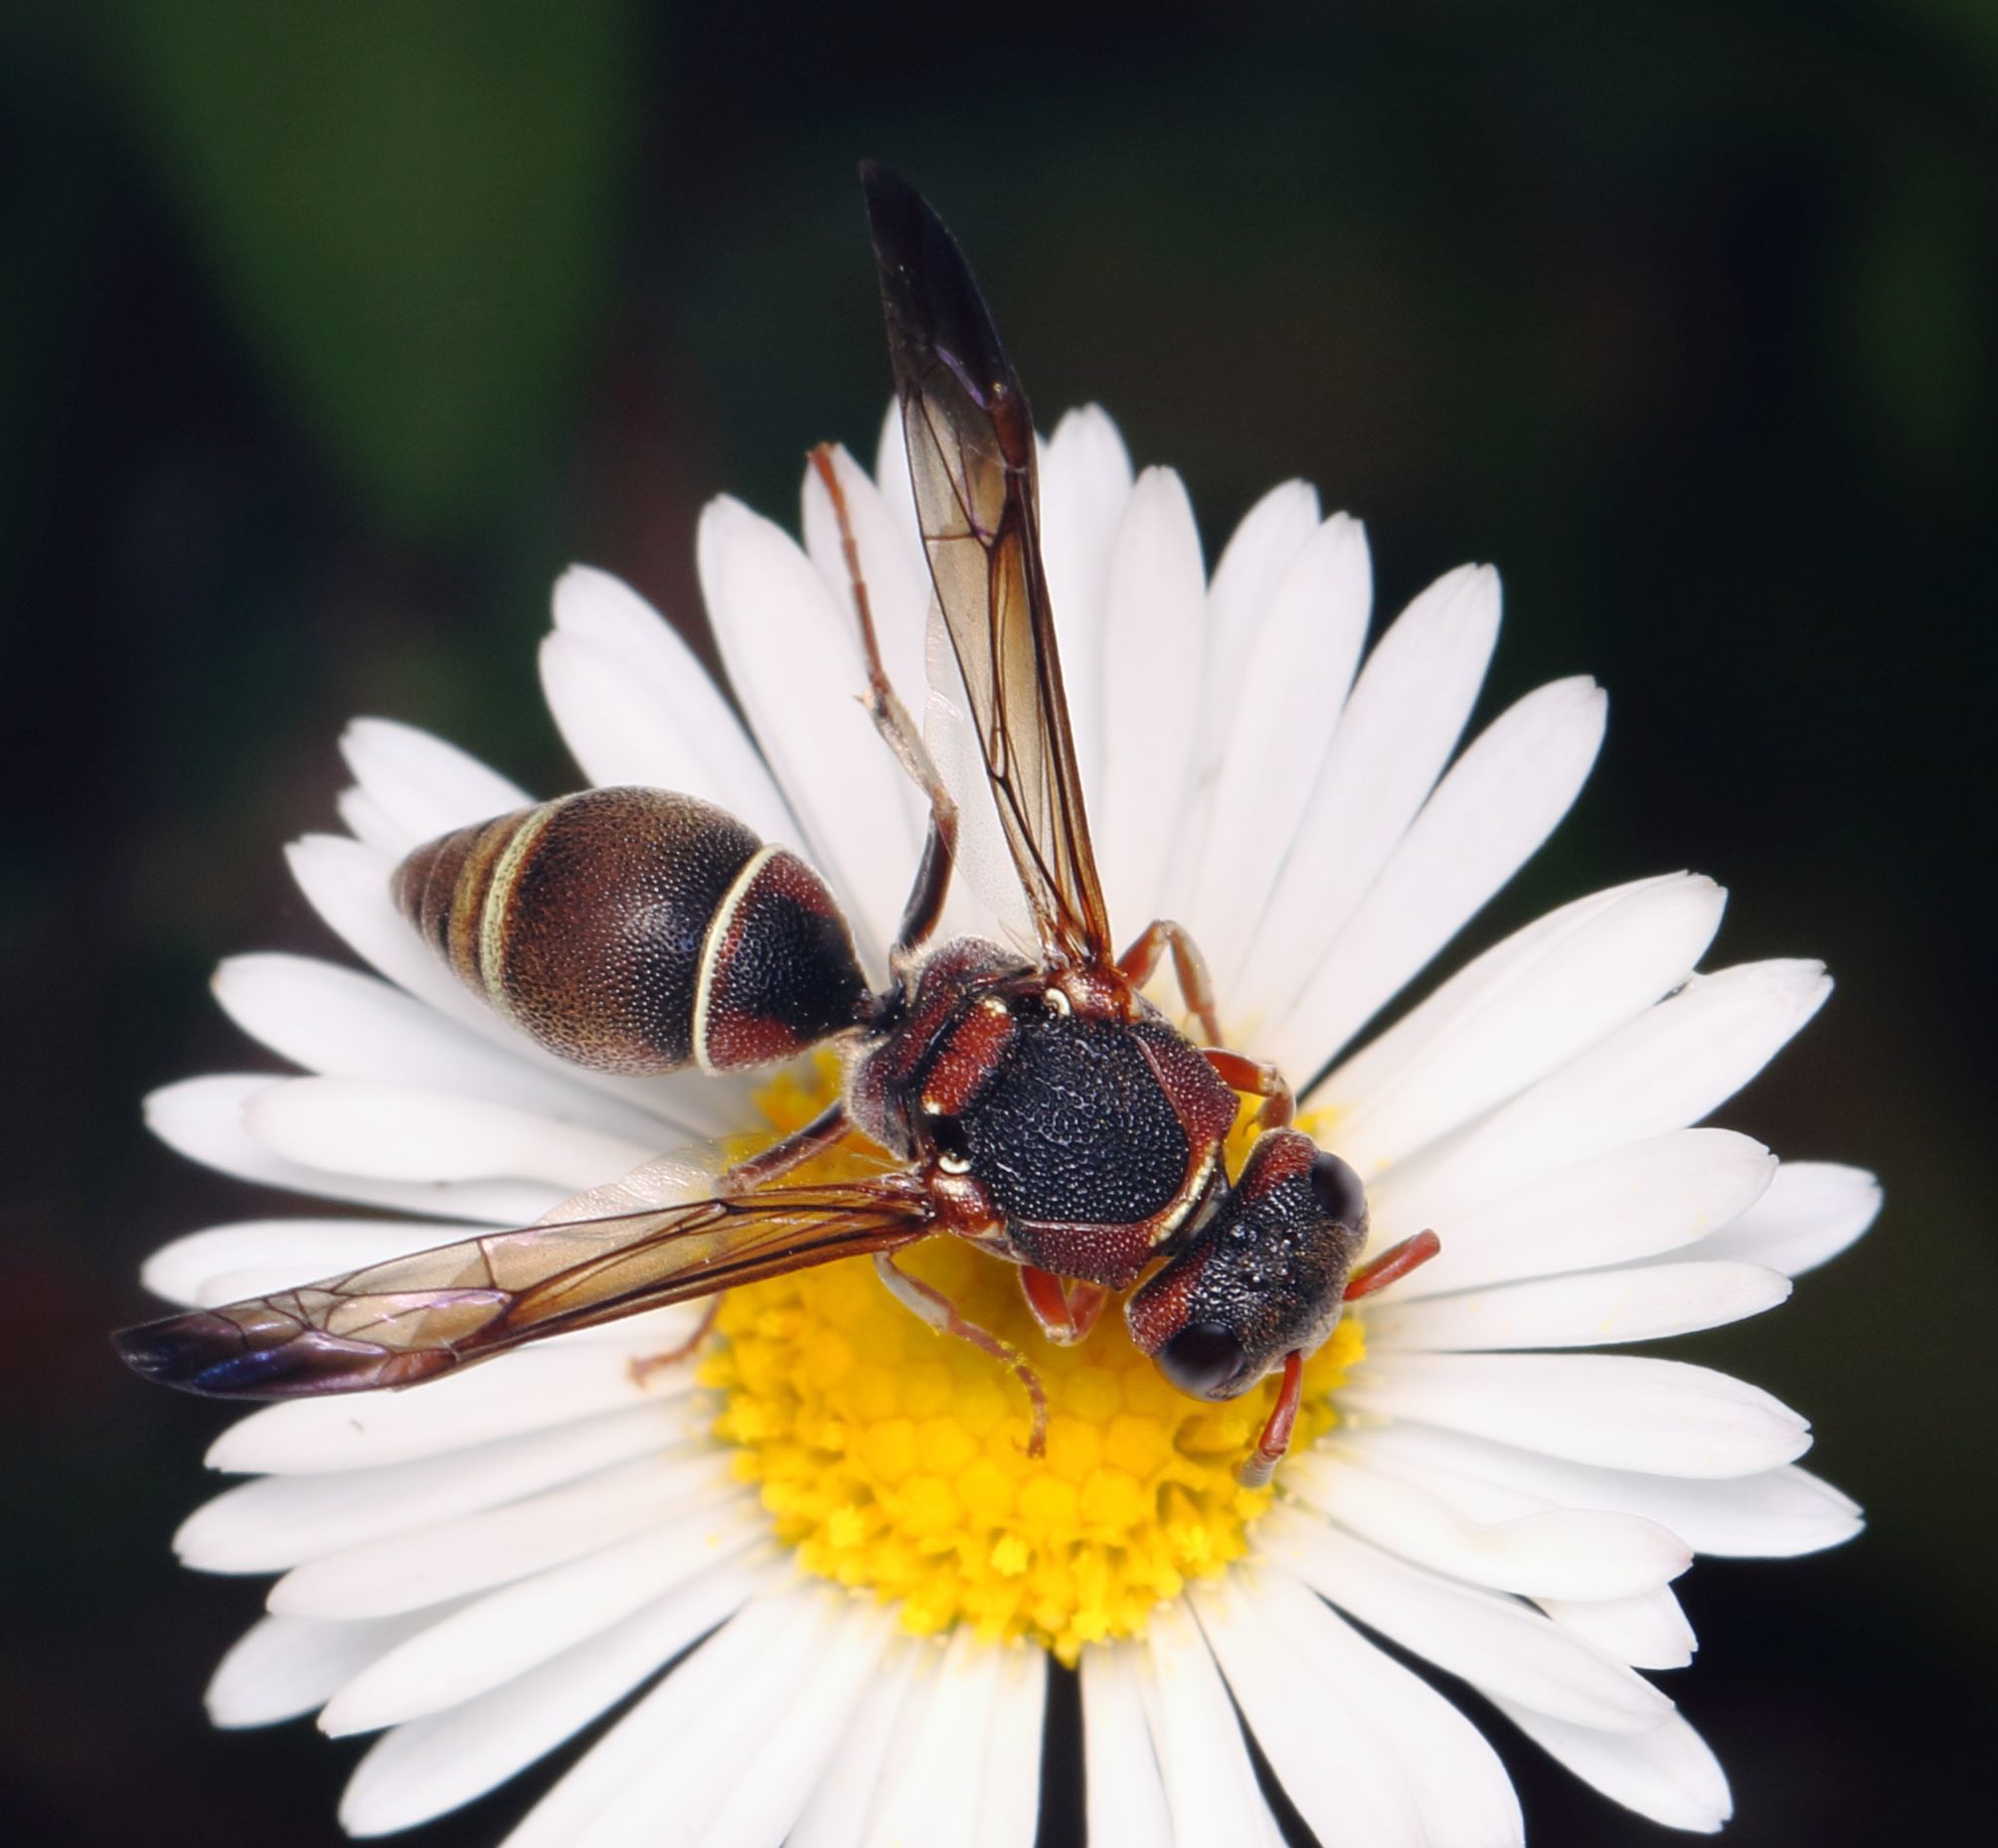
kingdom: Animalia
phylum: Arthropoda
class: Insecta
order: Hymenoptera
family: Eumenidae
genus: Antepipona
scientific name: Antepipona
